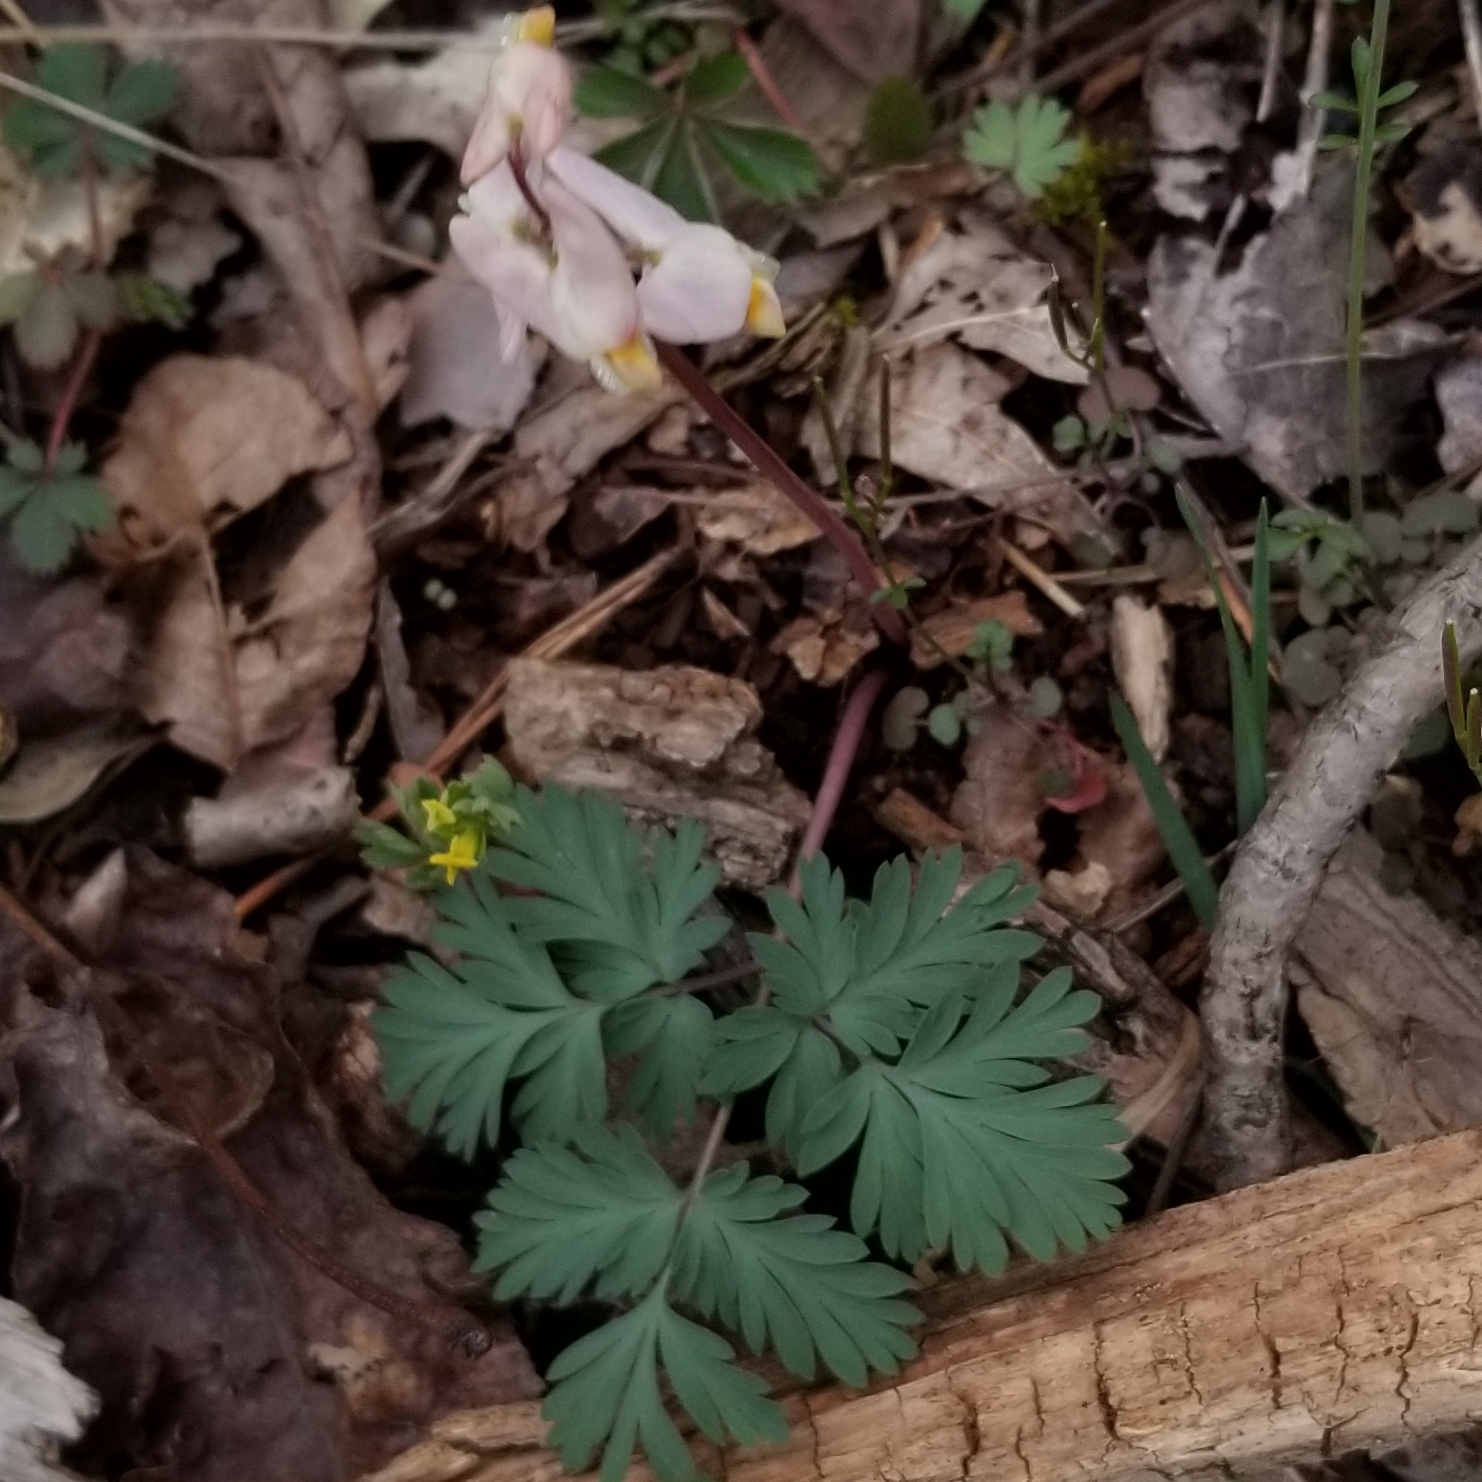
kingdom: Plantae
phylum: Tracheophyta
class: Magnoliopsida
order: Ranunculales
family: Papaveraceae
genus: Dicentra
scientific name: Dicentra cucullaria
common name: Dutchman's breeches
